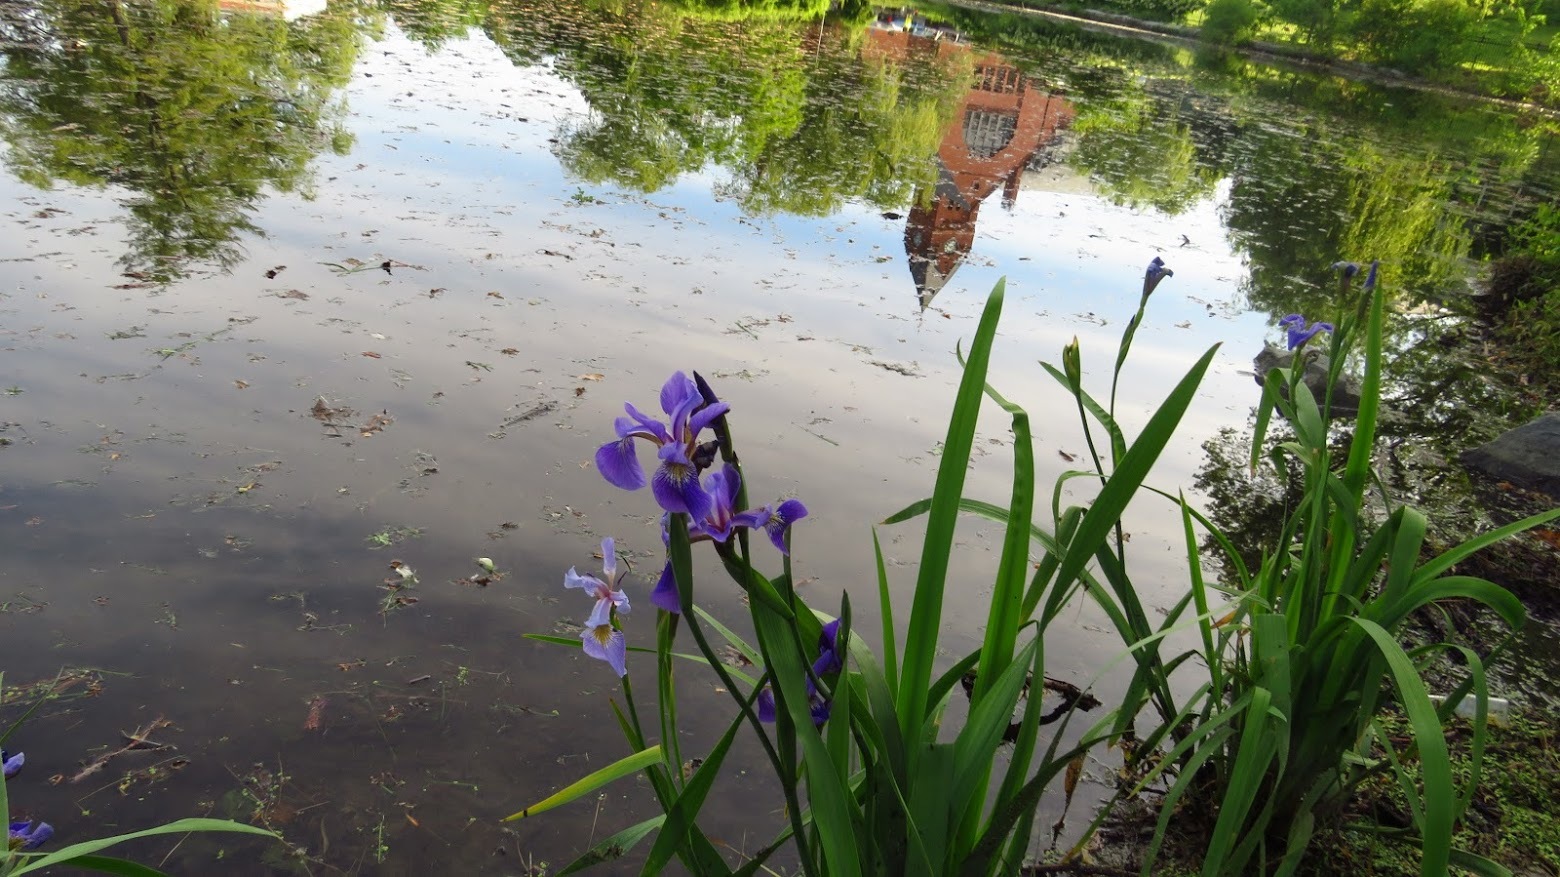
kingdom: Plantae
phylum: Tracheophyta
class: Liliopsida
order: Asparagales
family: Iridaceae
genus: Iris
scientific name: Iris versicolor
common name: Purple iris
